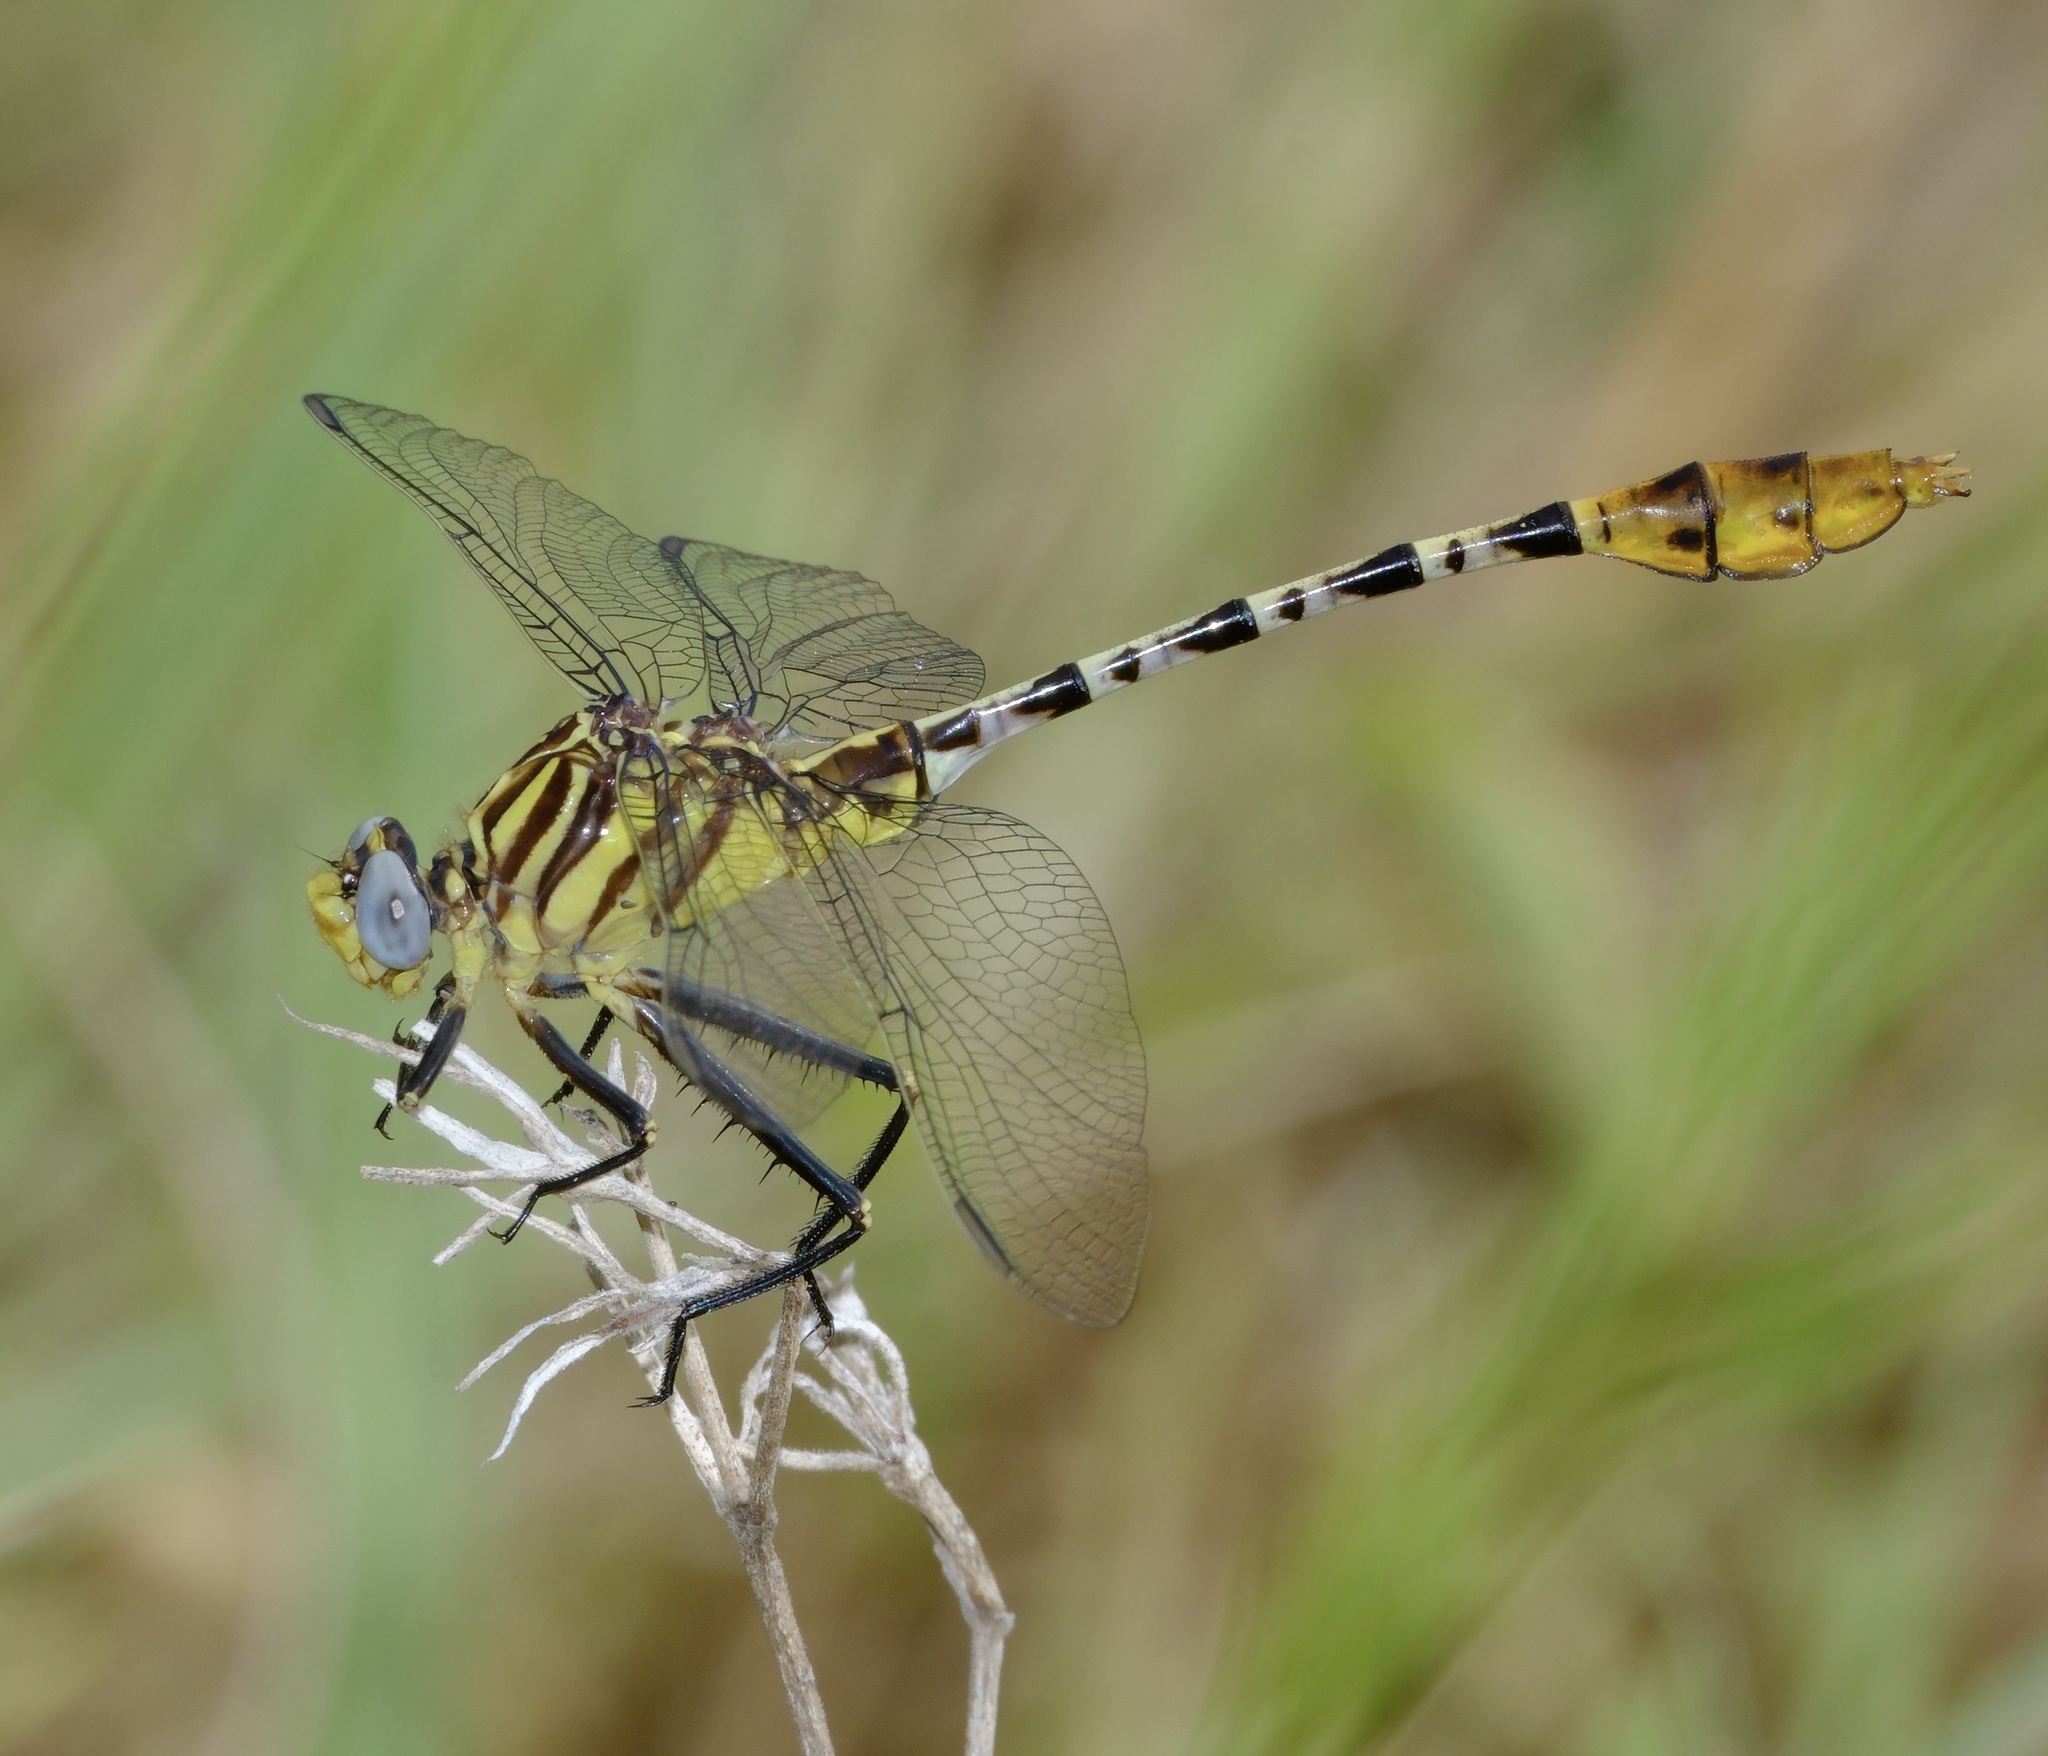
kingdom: Animalia
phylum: Arthropoda
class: Insecta
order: Odonata
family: Gomphidae
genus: Dromogomphus
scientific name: Dromogomphus spoliatus
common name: Flag-tailed spinyleg
